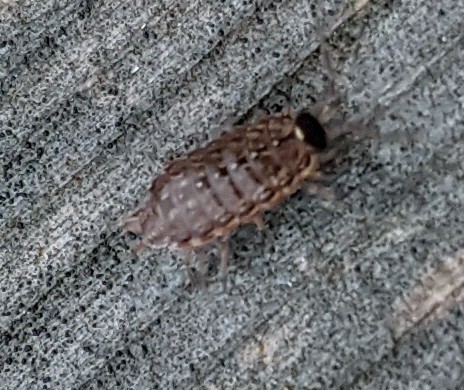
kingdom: Animalia
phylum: Arthropoda
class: Malacostraca
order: Isopoda
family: Philosciidae
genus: Philoscia
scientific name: Philoscia muscorum
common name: Common striped woodlouse
